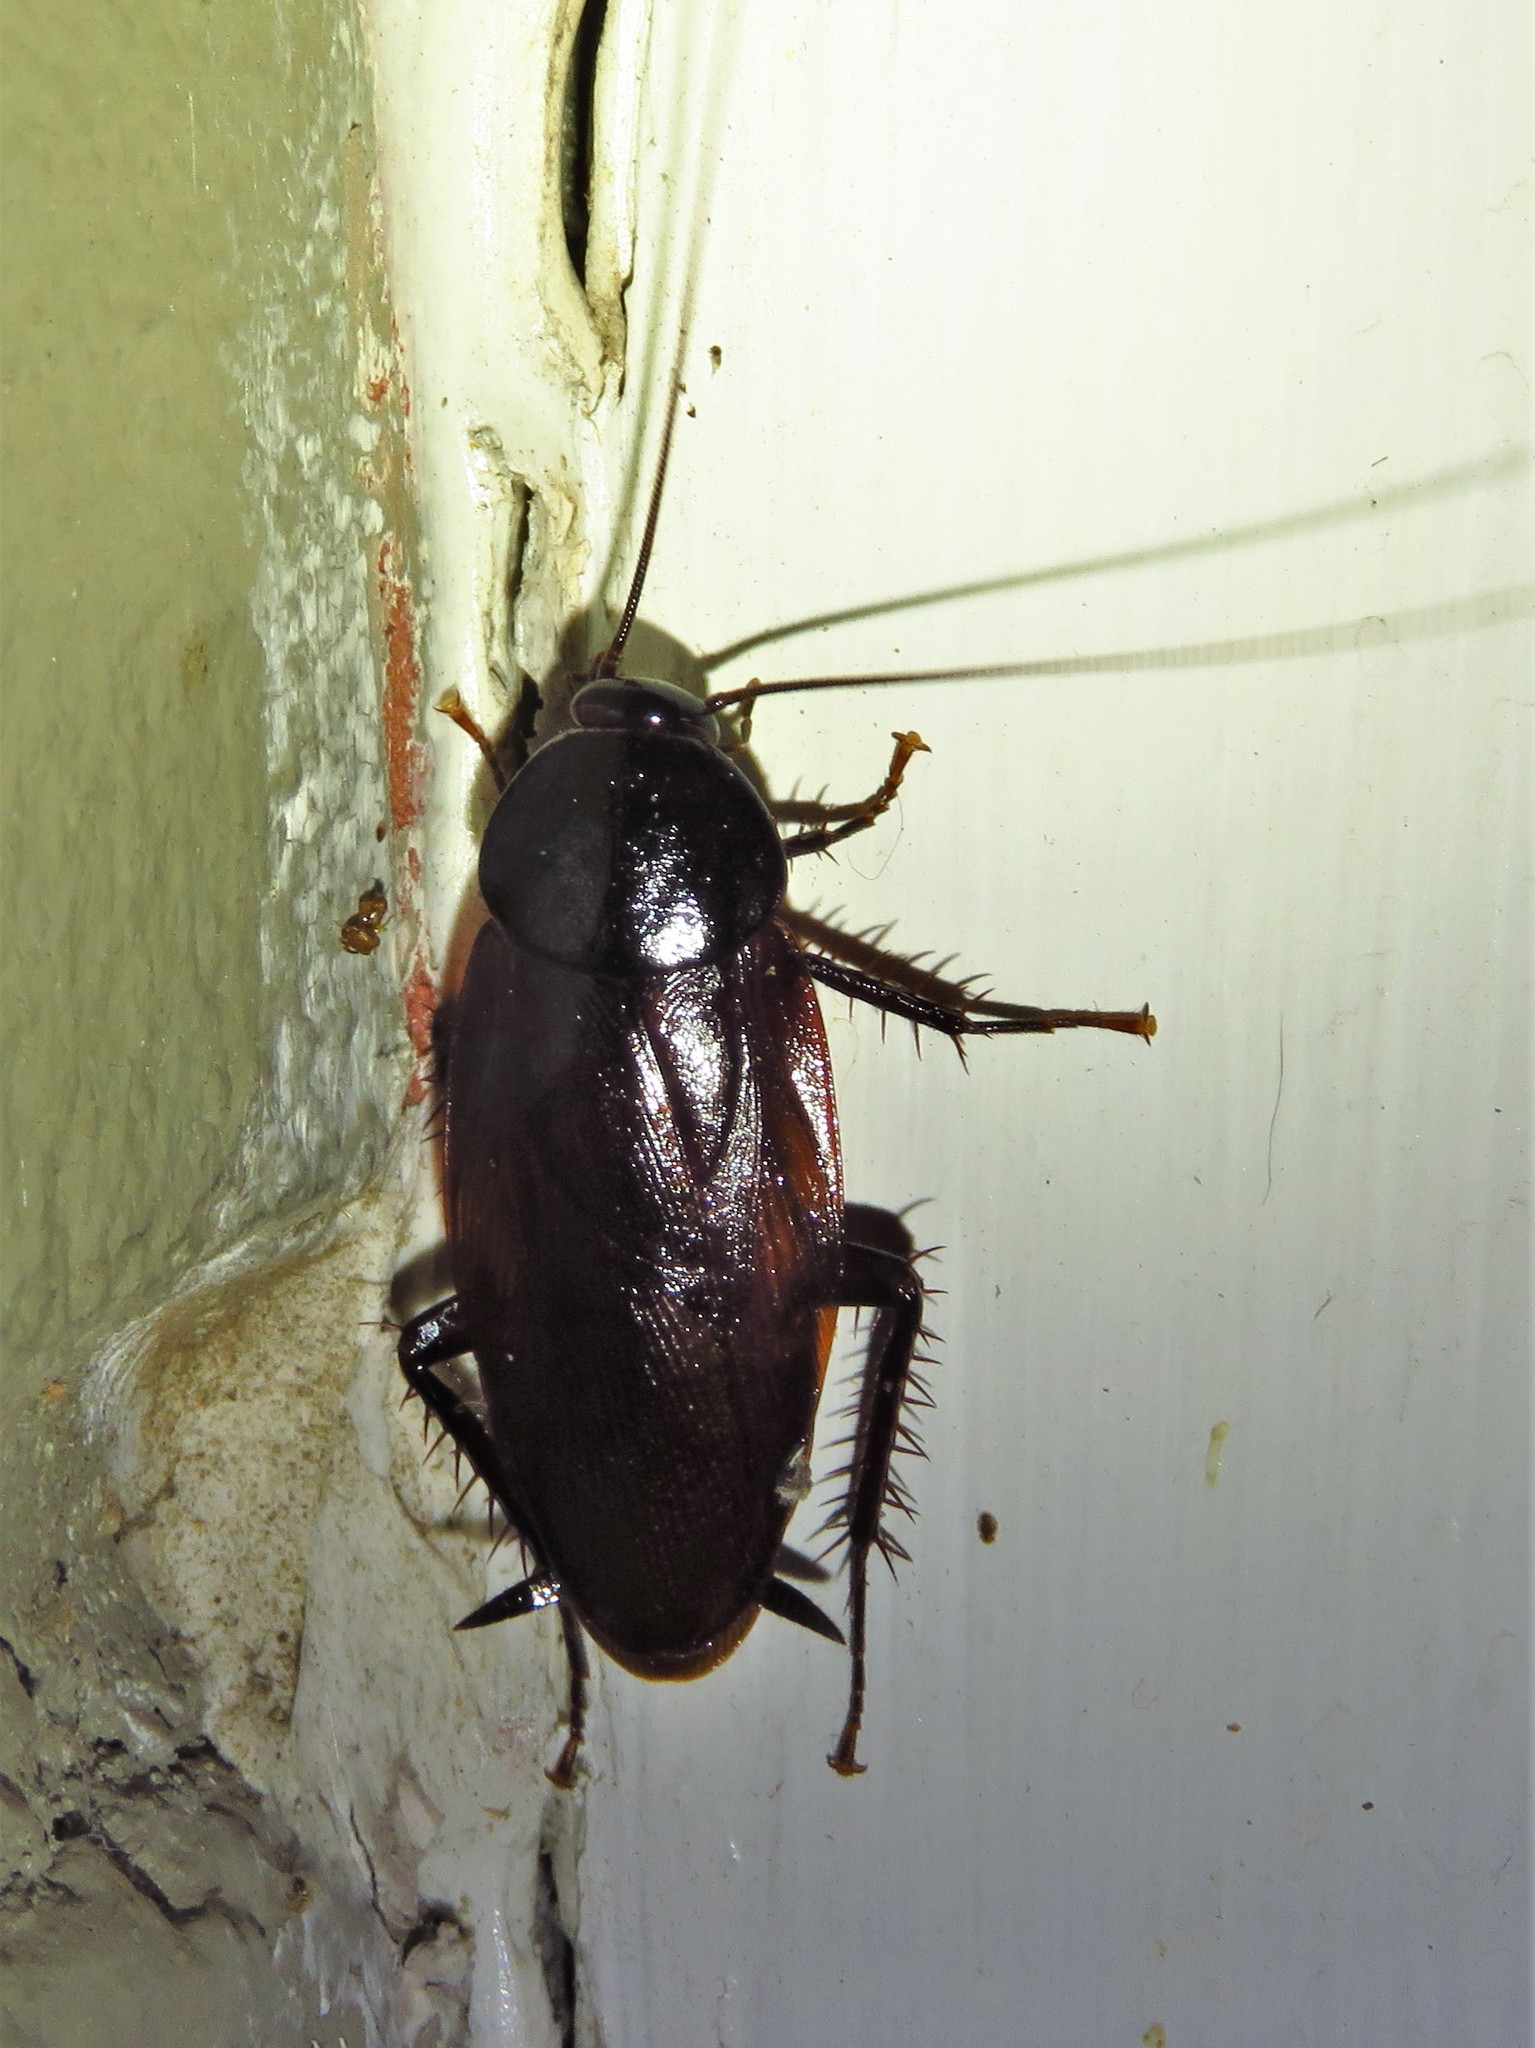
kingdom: Animalia
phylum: Arthropoda
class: Insecta
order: Blattodea
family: Blattidae
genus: Periplaneta
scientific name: Periplaneta fuliginosa
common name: Smokeybrown cockroad
